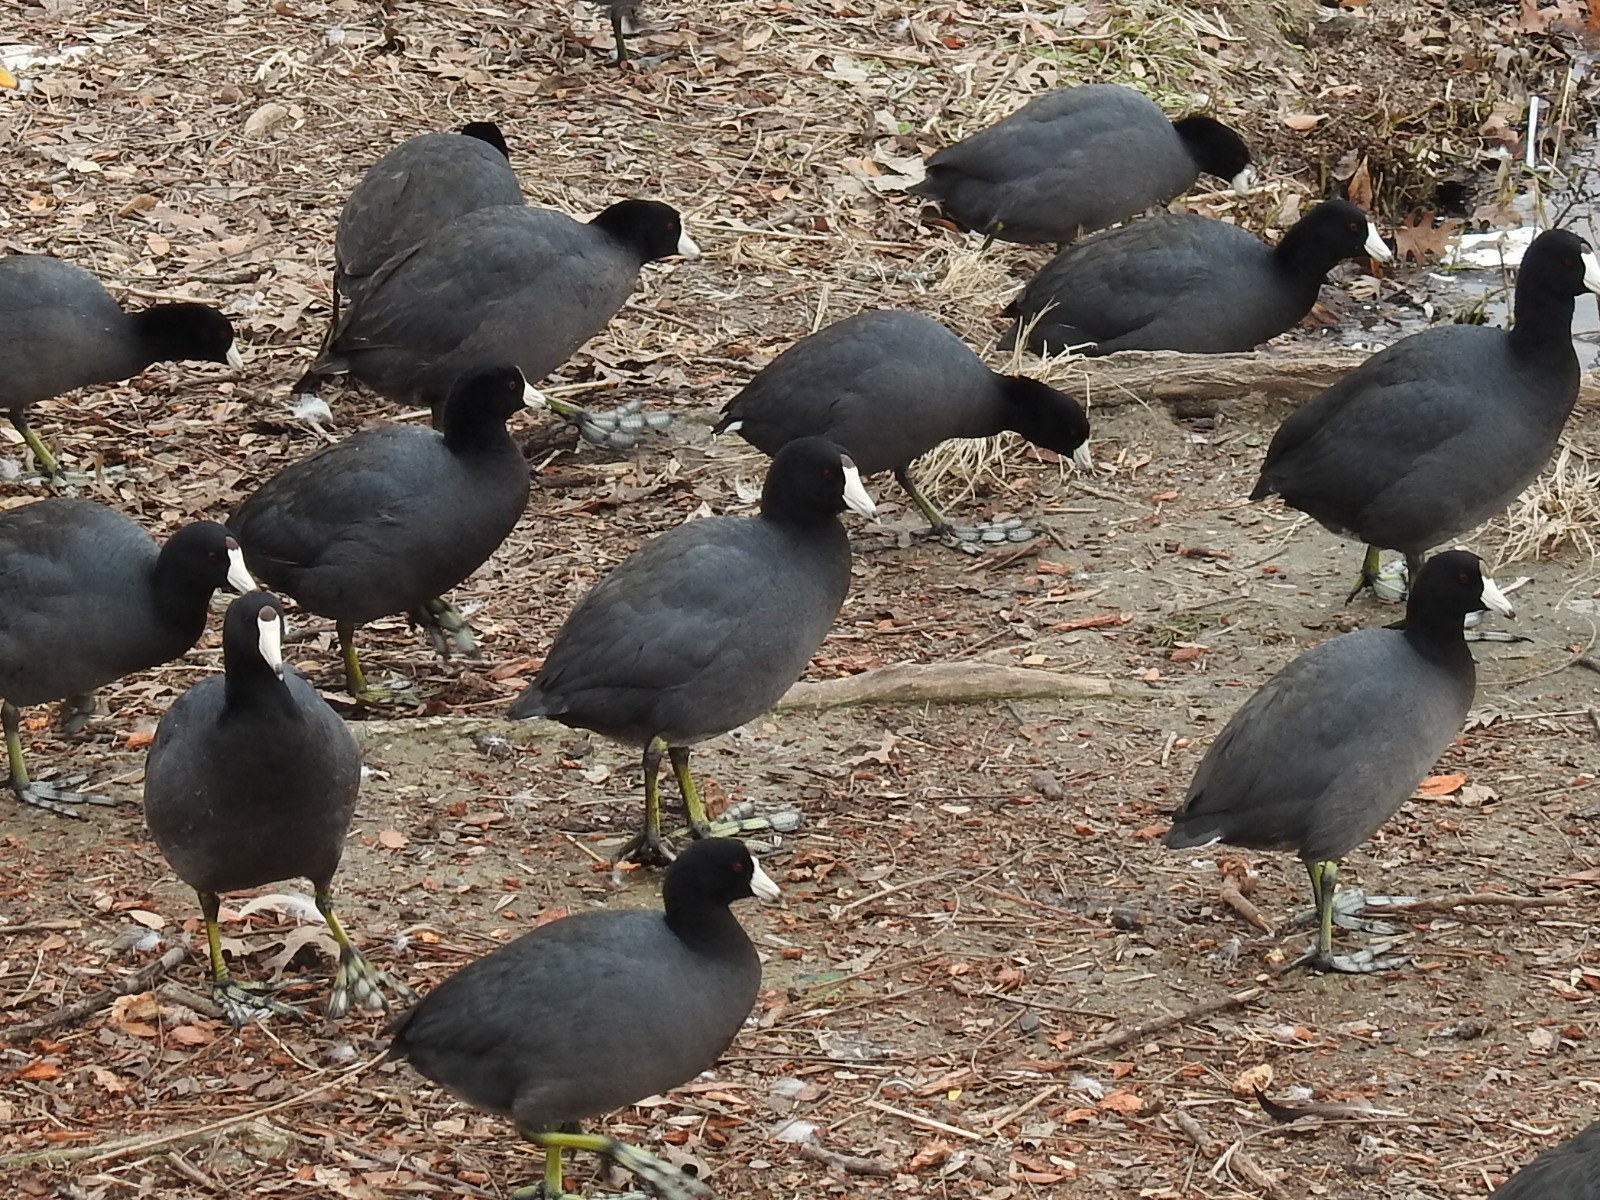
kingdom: Animalia
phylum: Chordata
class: Aves
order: Gruiformes
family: Rallidae
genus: Fulica
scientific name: Fulica americana
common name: American coot
